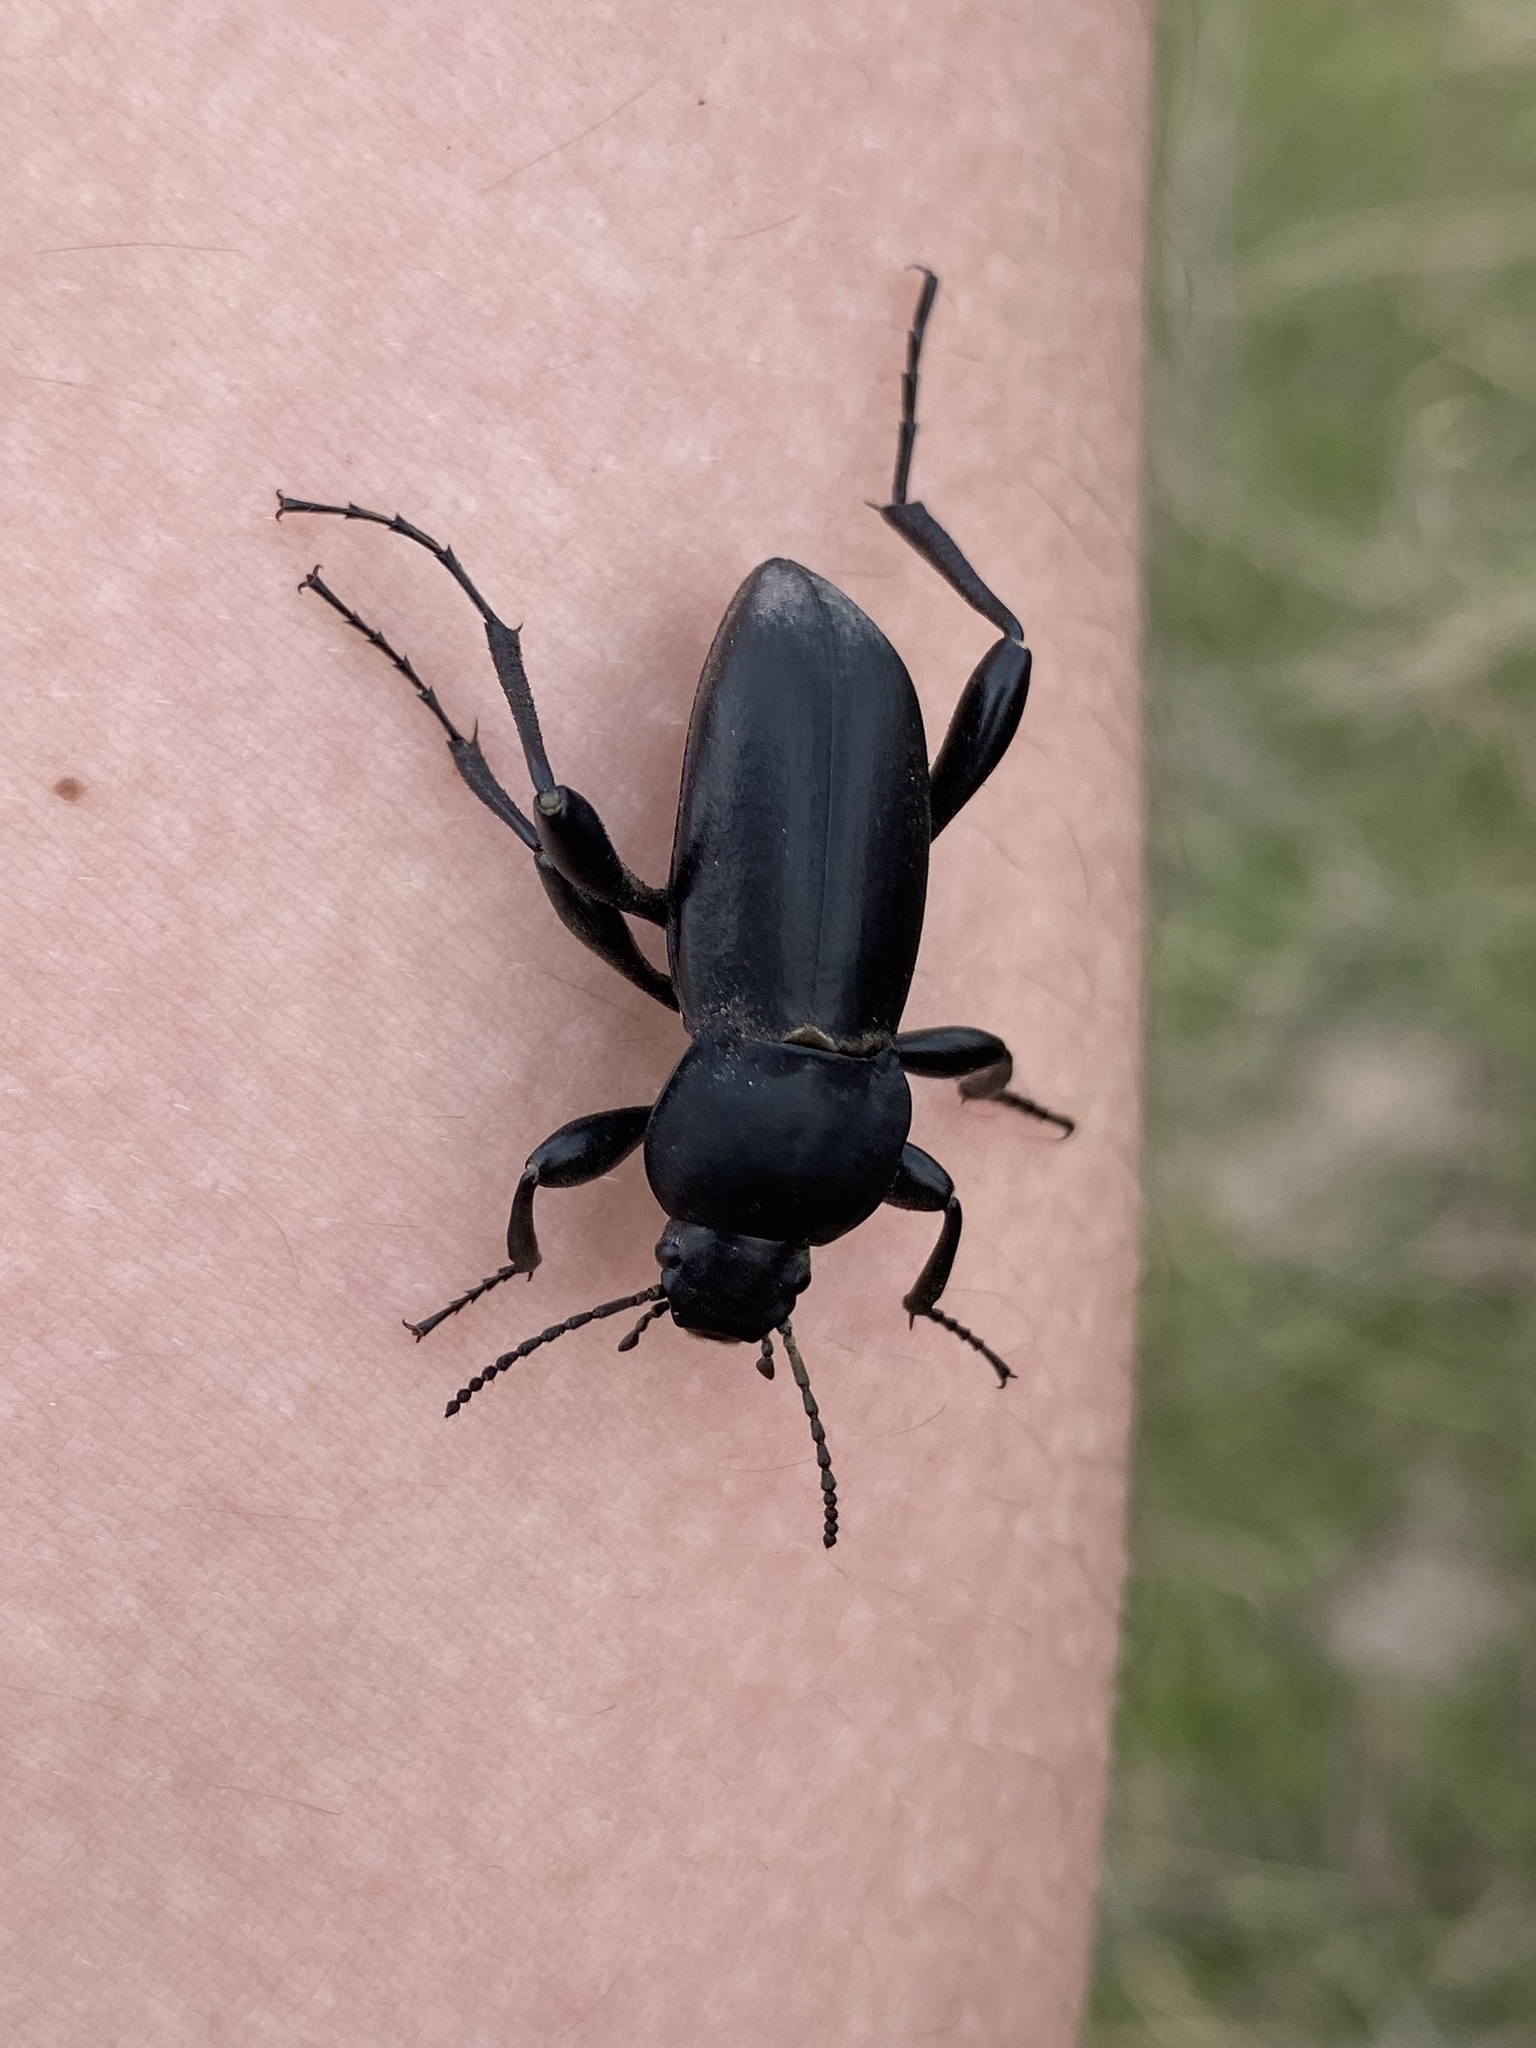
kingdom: Animalia
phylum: Arthropoda
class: Insecta
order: Coleoptera
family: Tenebrionidae
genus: Prosodes
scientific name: Prosodes
